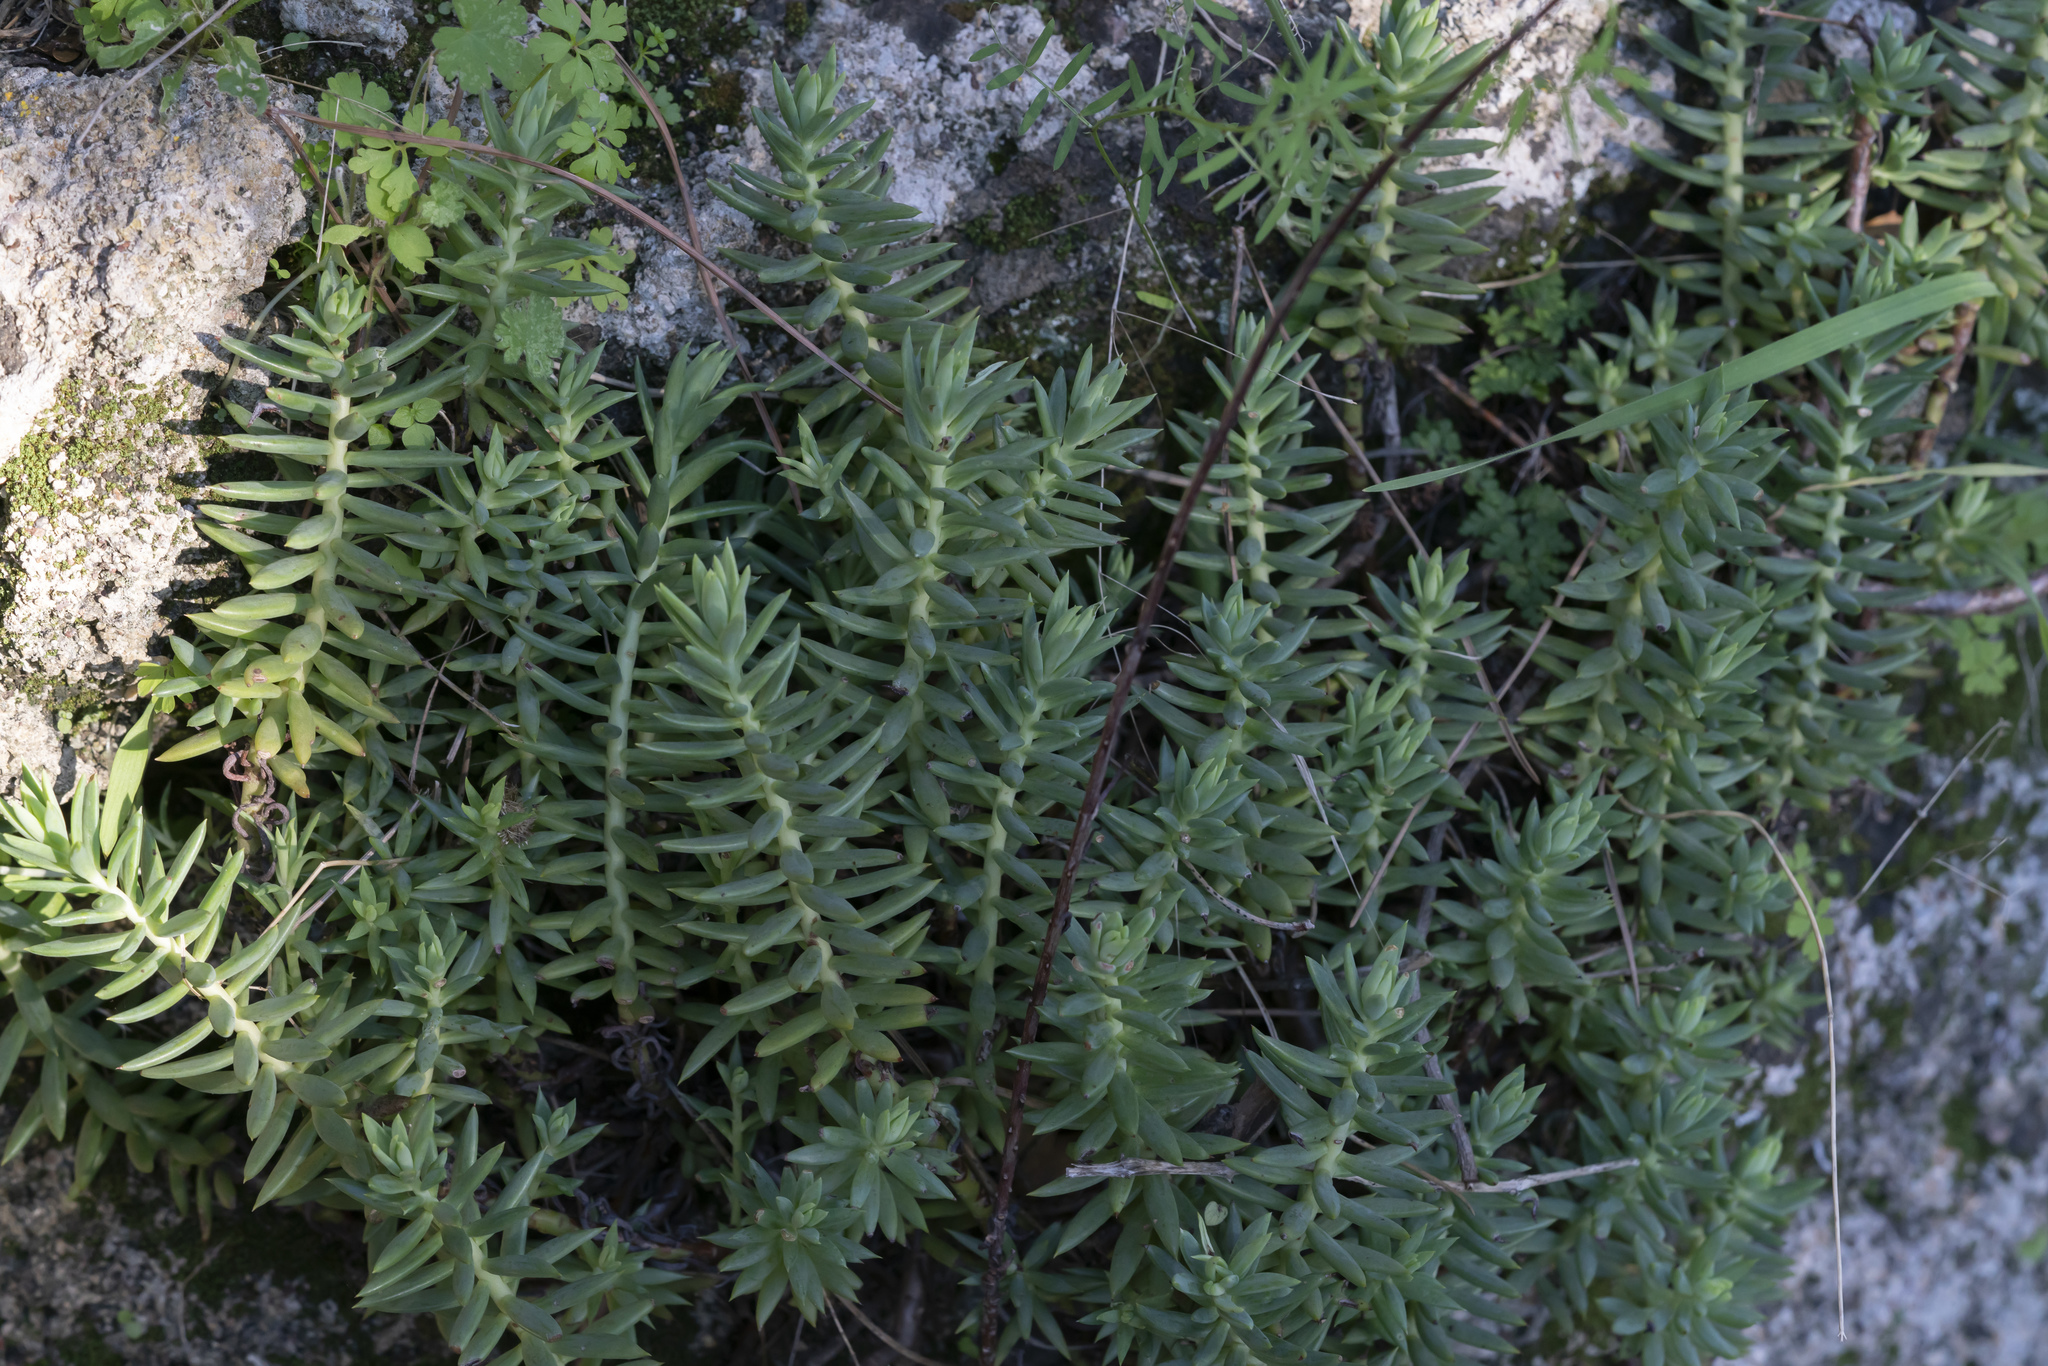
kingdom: Plantae
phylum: Tracheophyta
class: Magnoliopsida
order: Saxifragales
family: Crassulaceae
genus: Petrosedum
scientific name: Petrosedum sediforme
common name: Pale stonecrop
